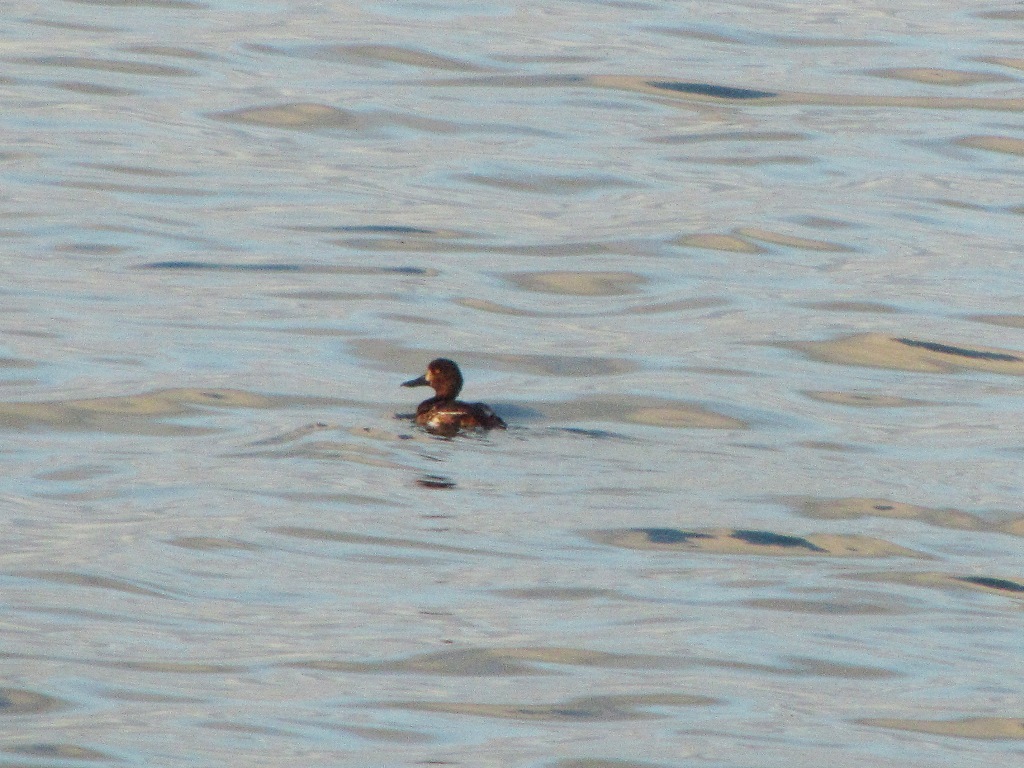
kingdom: Animalia
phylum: Chordata
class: Aves
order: Anseriformes
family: Anatidae
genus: Aythya
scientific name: Aythya fuligula
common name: Tufted duck
